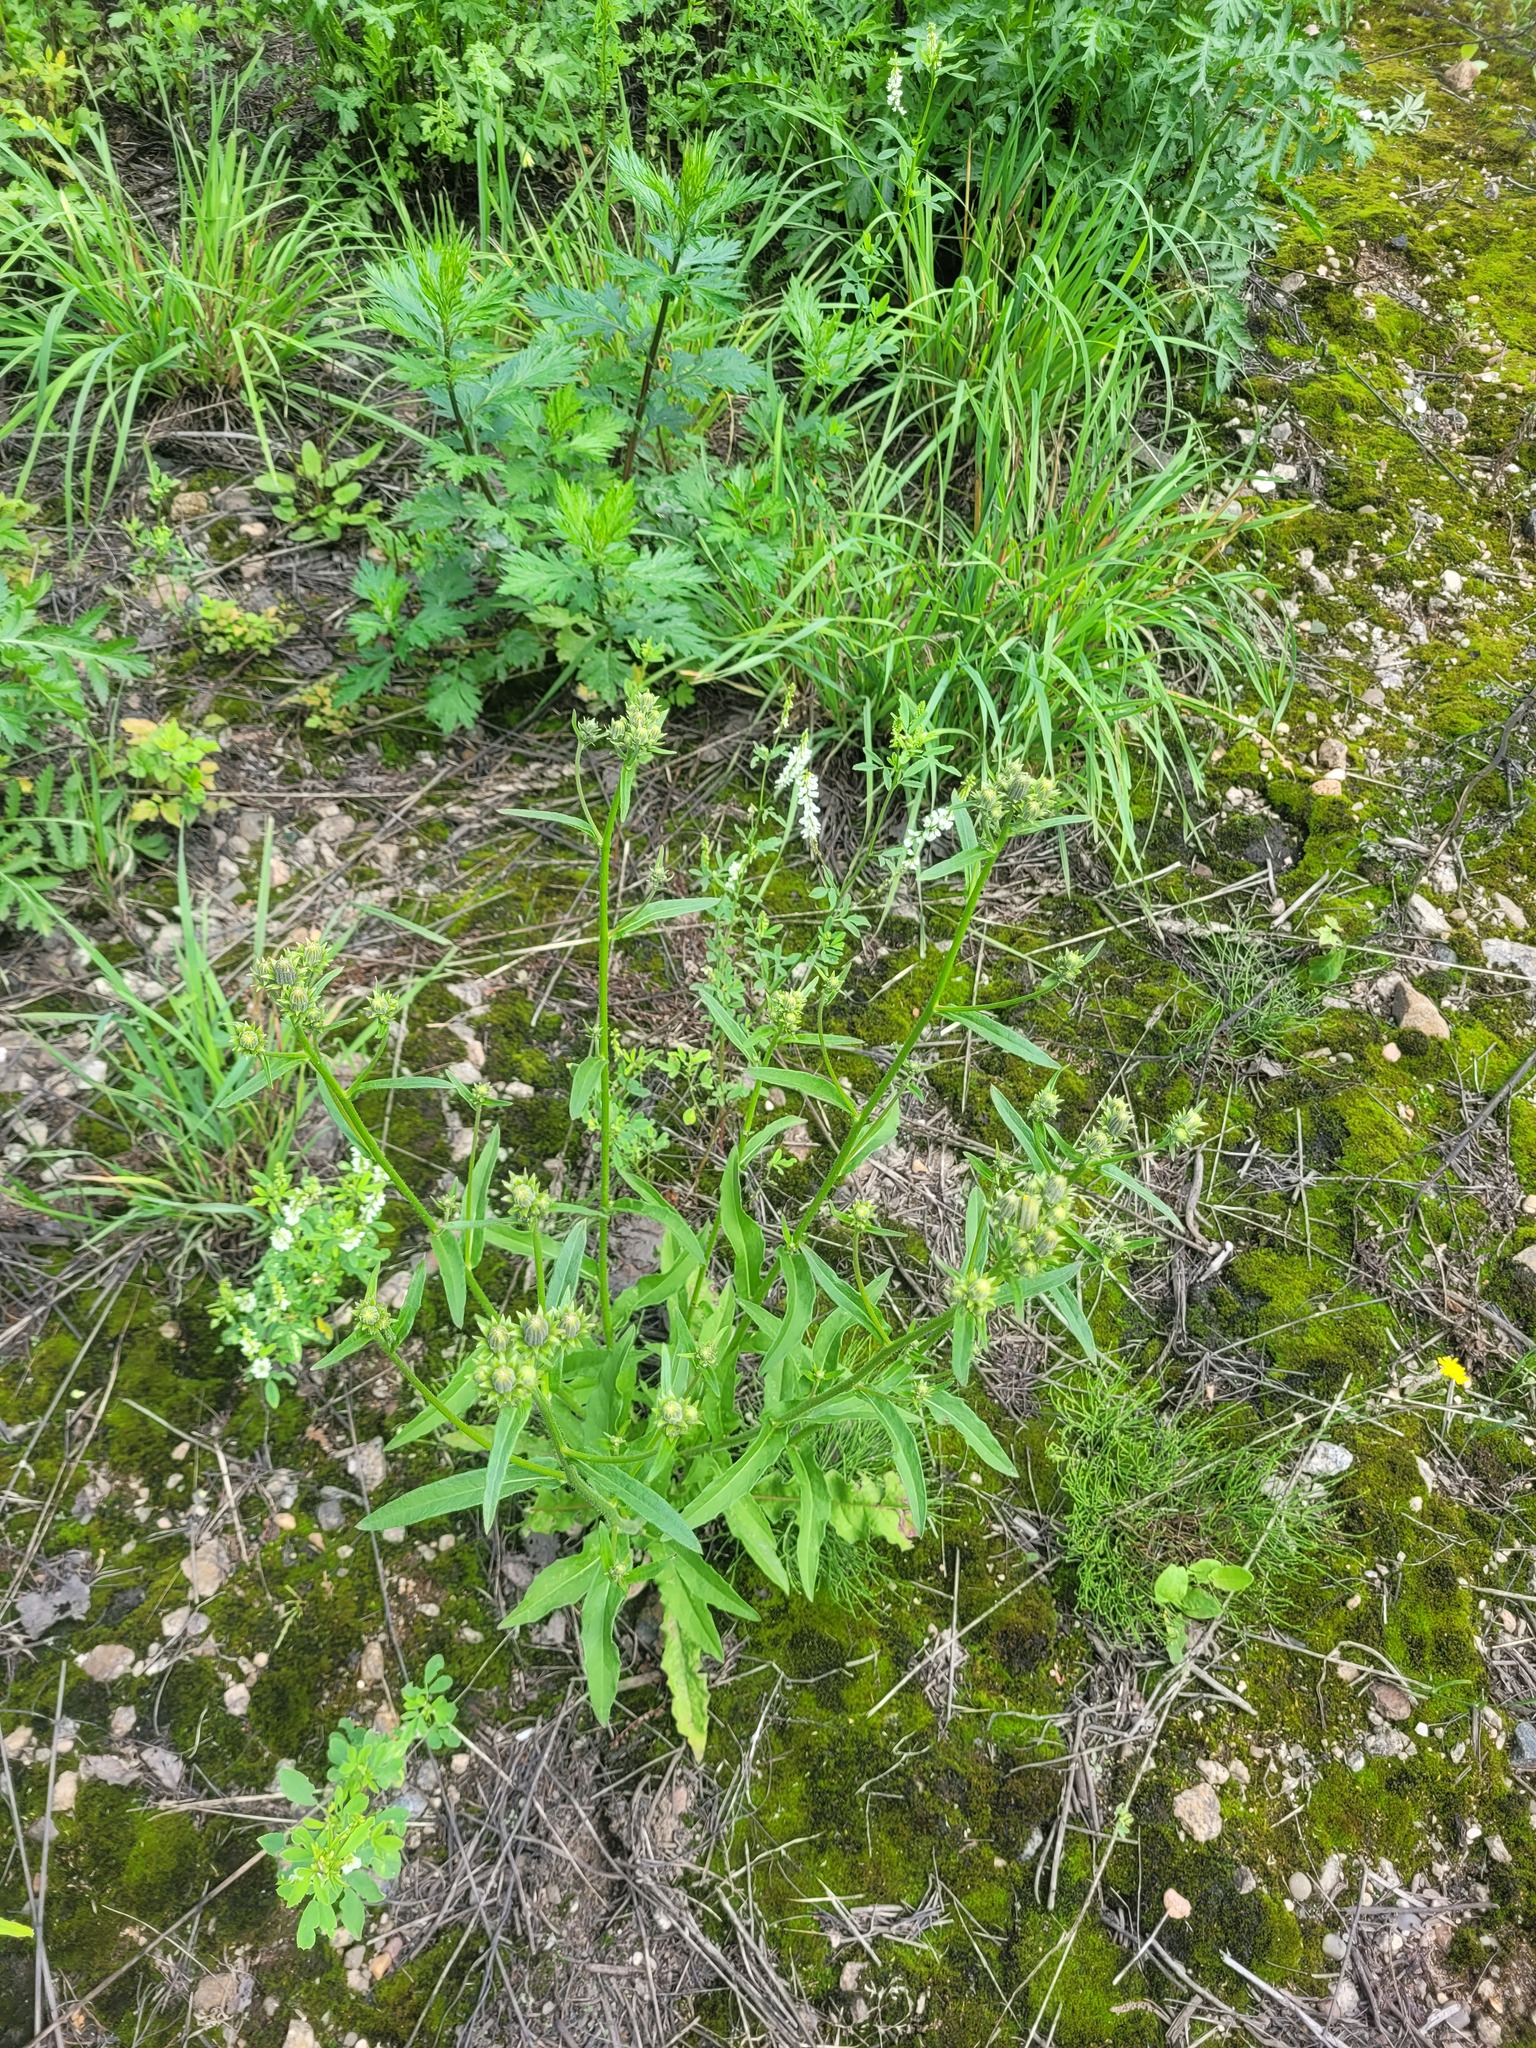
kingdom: Plantae
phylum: Tracheophyta
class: Magnoliopsida
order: Asterales
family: Asteraceae
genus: Picris
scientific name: Picris hieracioides
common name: Hawkweed oxtongue
